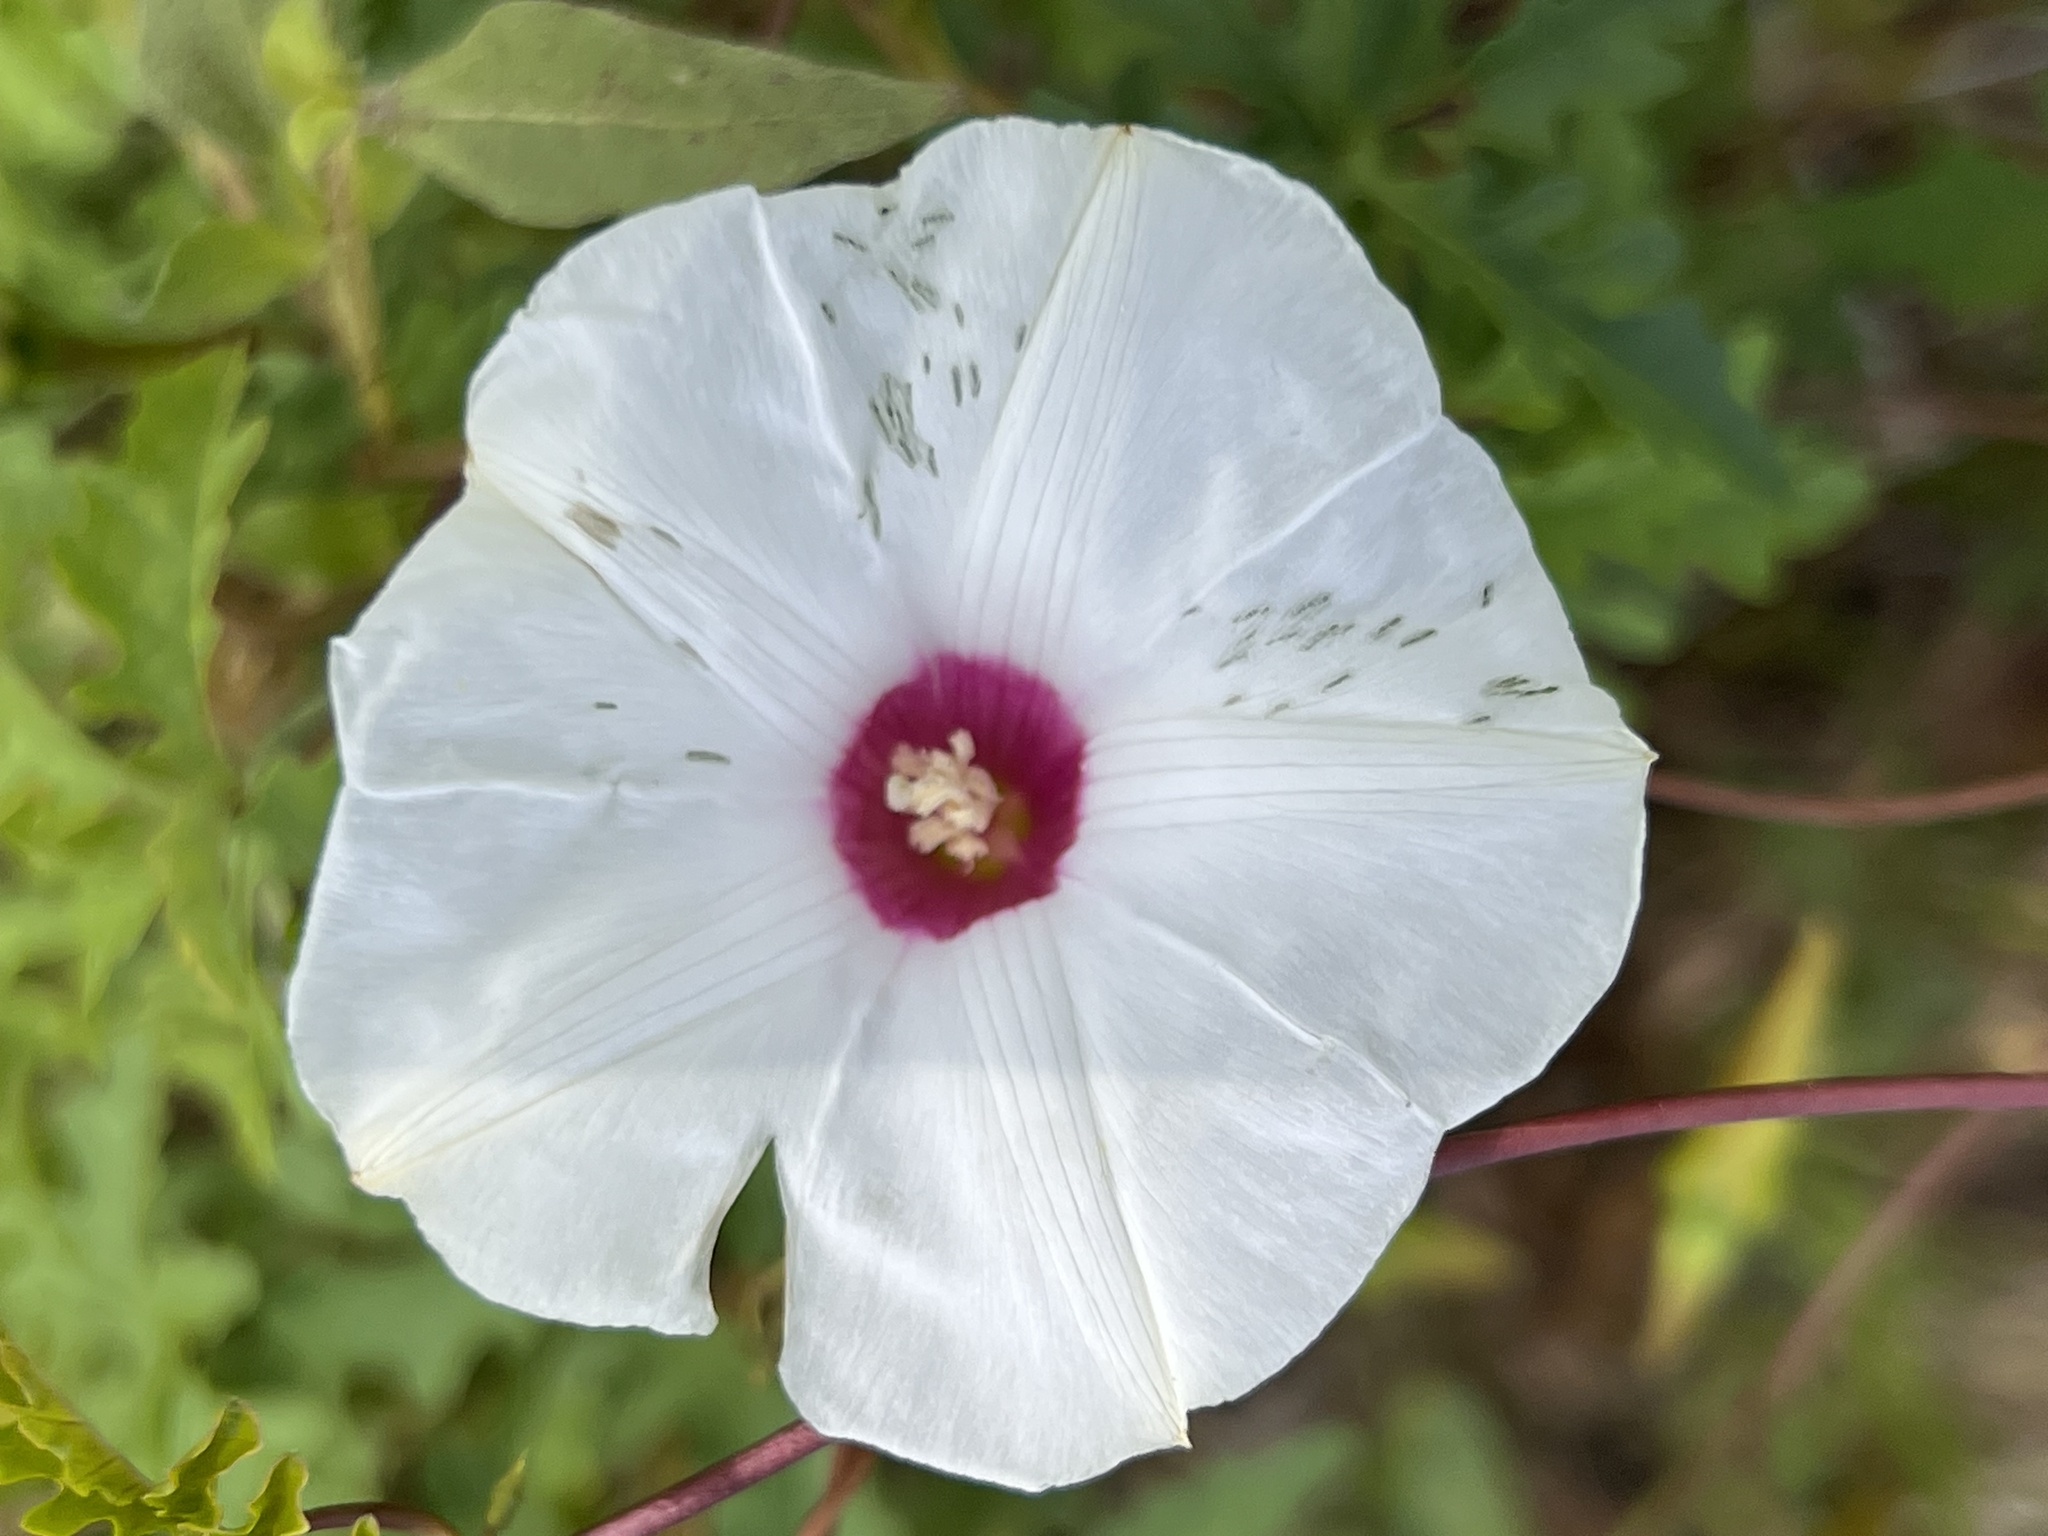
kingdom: Plantae
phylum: Tracheophyta
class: Magnoliopsida
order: Solanales
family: Convolvulaceae
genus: Distimake
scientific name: Distimake dissectus
